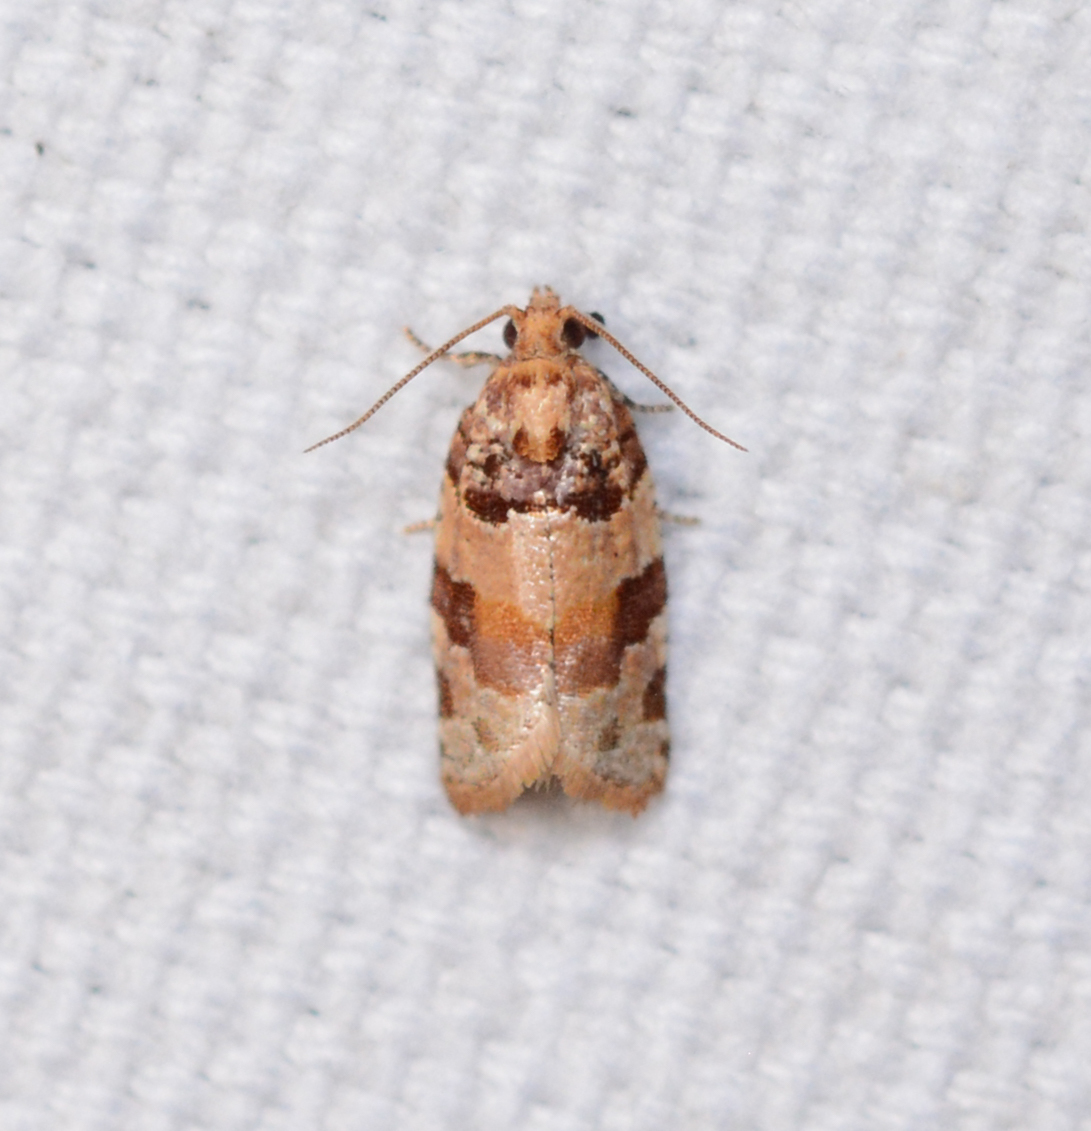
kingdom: Animalia
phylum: Arthropoda
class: Insecta
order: Lepidoptera
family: Tortricidae
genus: Argyrotaenia
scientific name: Argyrotaenia kimballi
